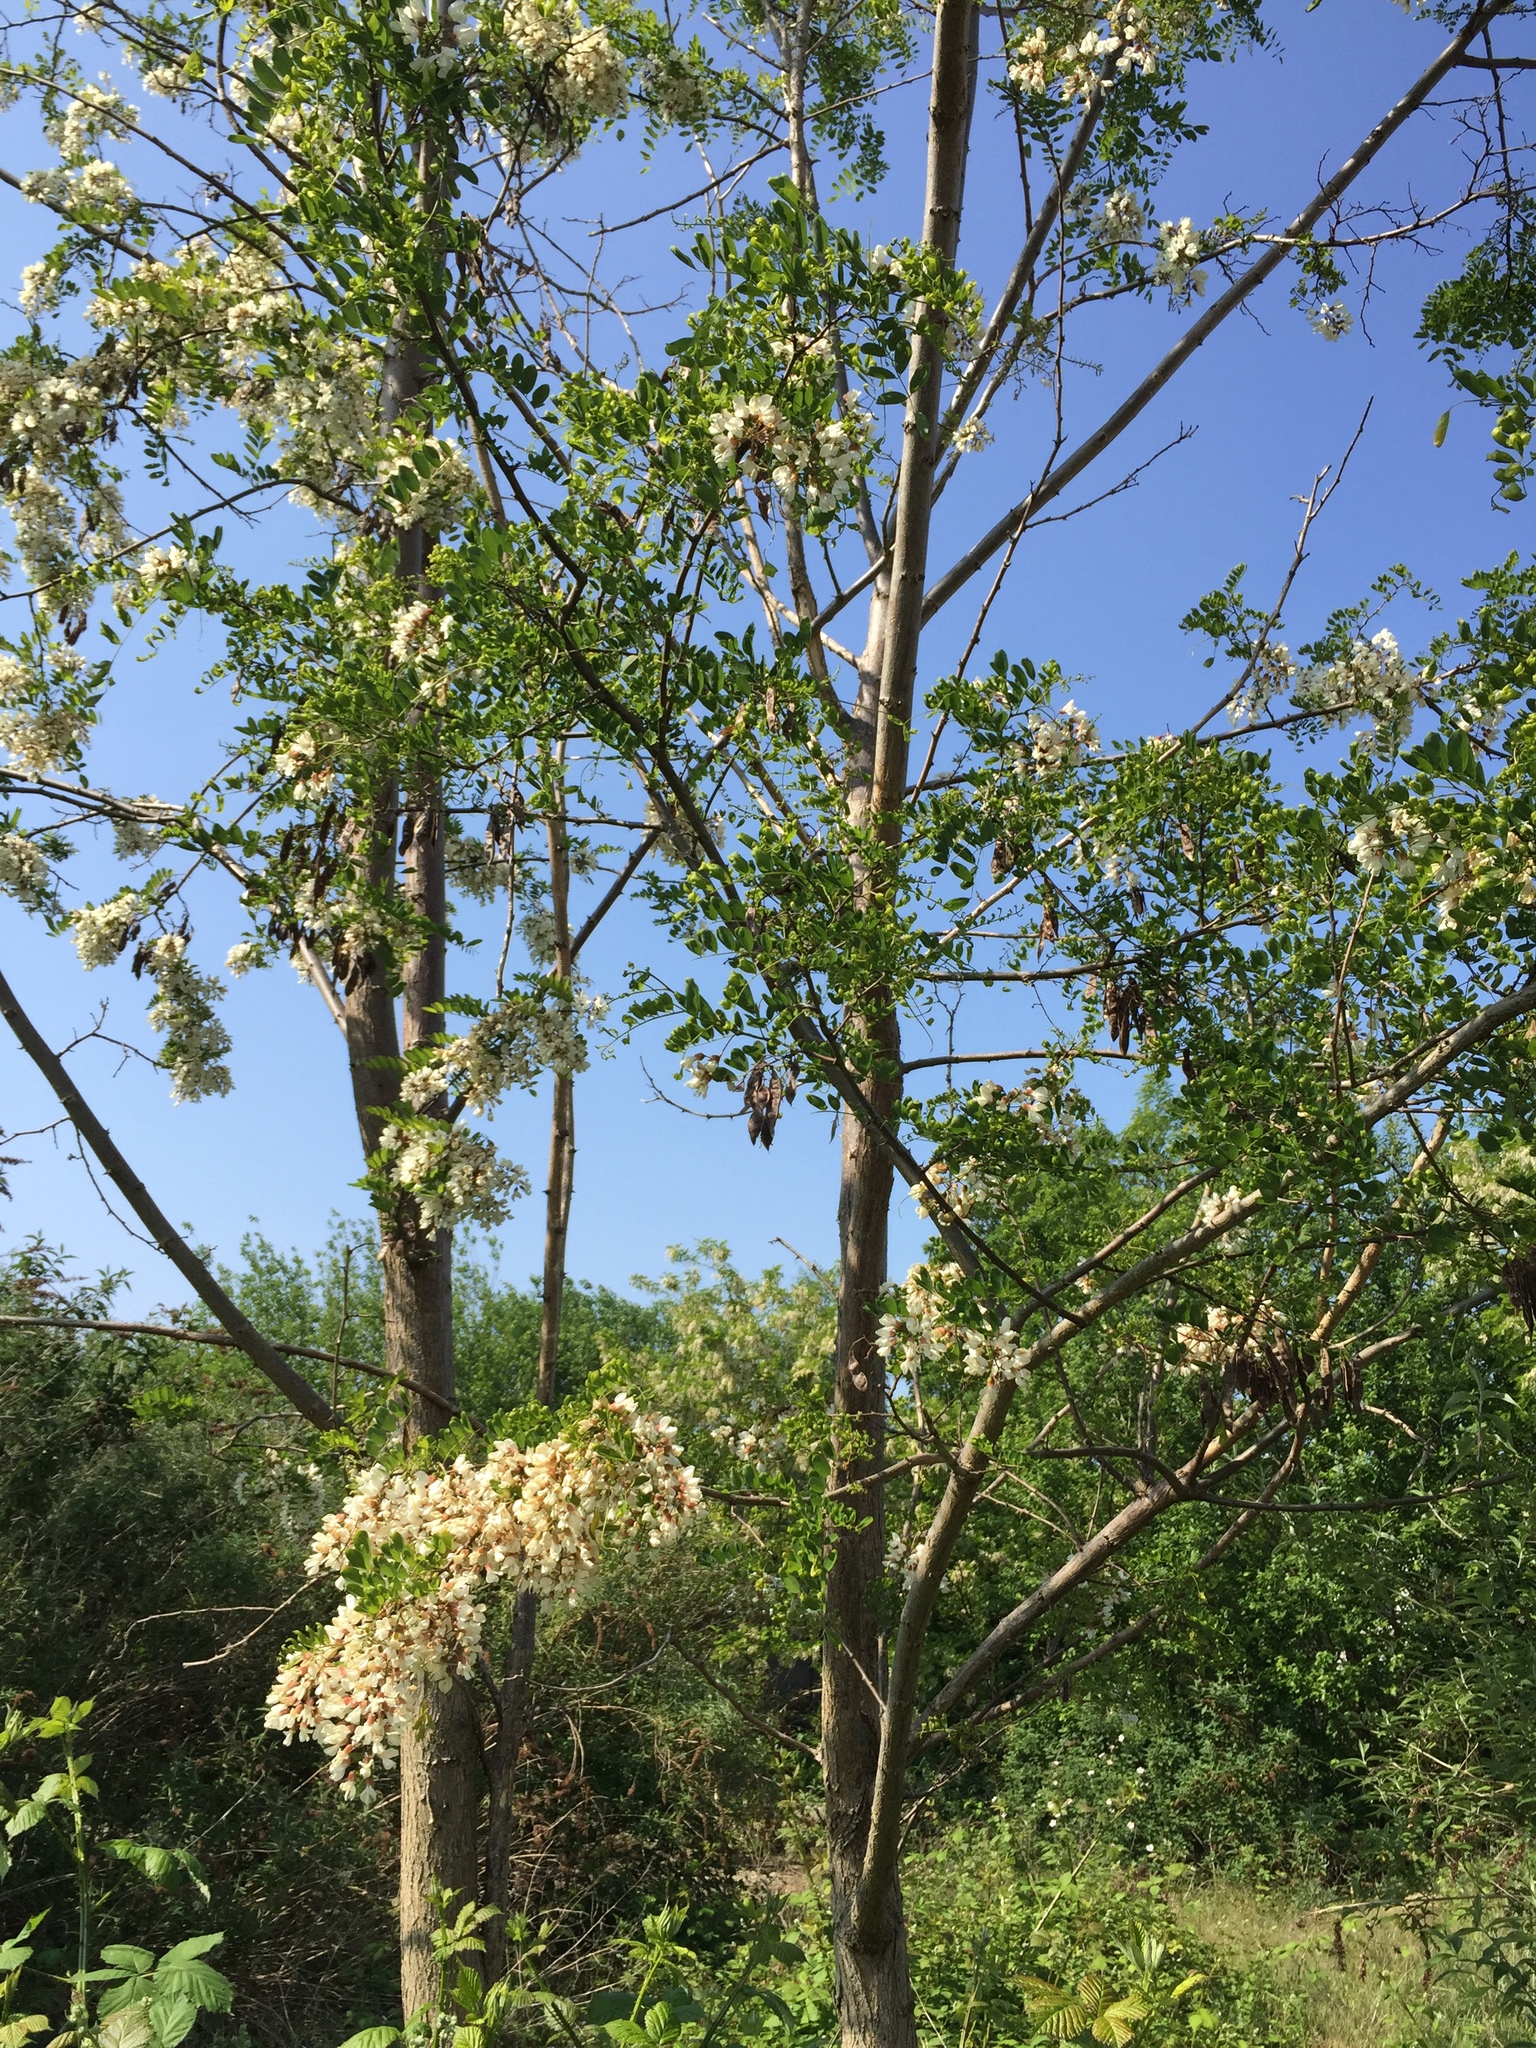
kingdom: Plantae
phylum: Tracheophyta
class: Magnoliopsida
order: Fabales
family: Fabaceae
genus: Robinia
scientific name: Robinia pseudoacacia
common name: Black locust
